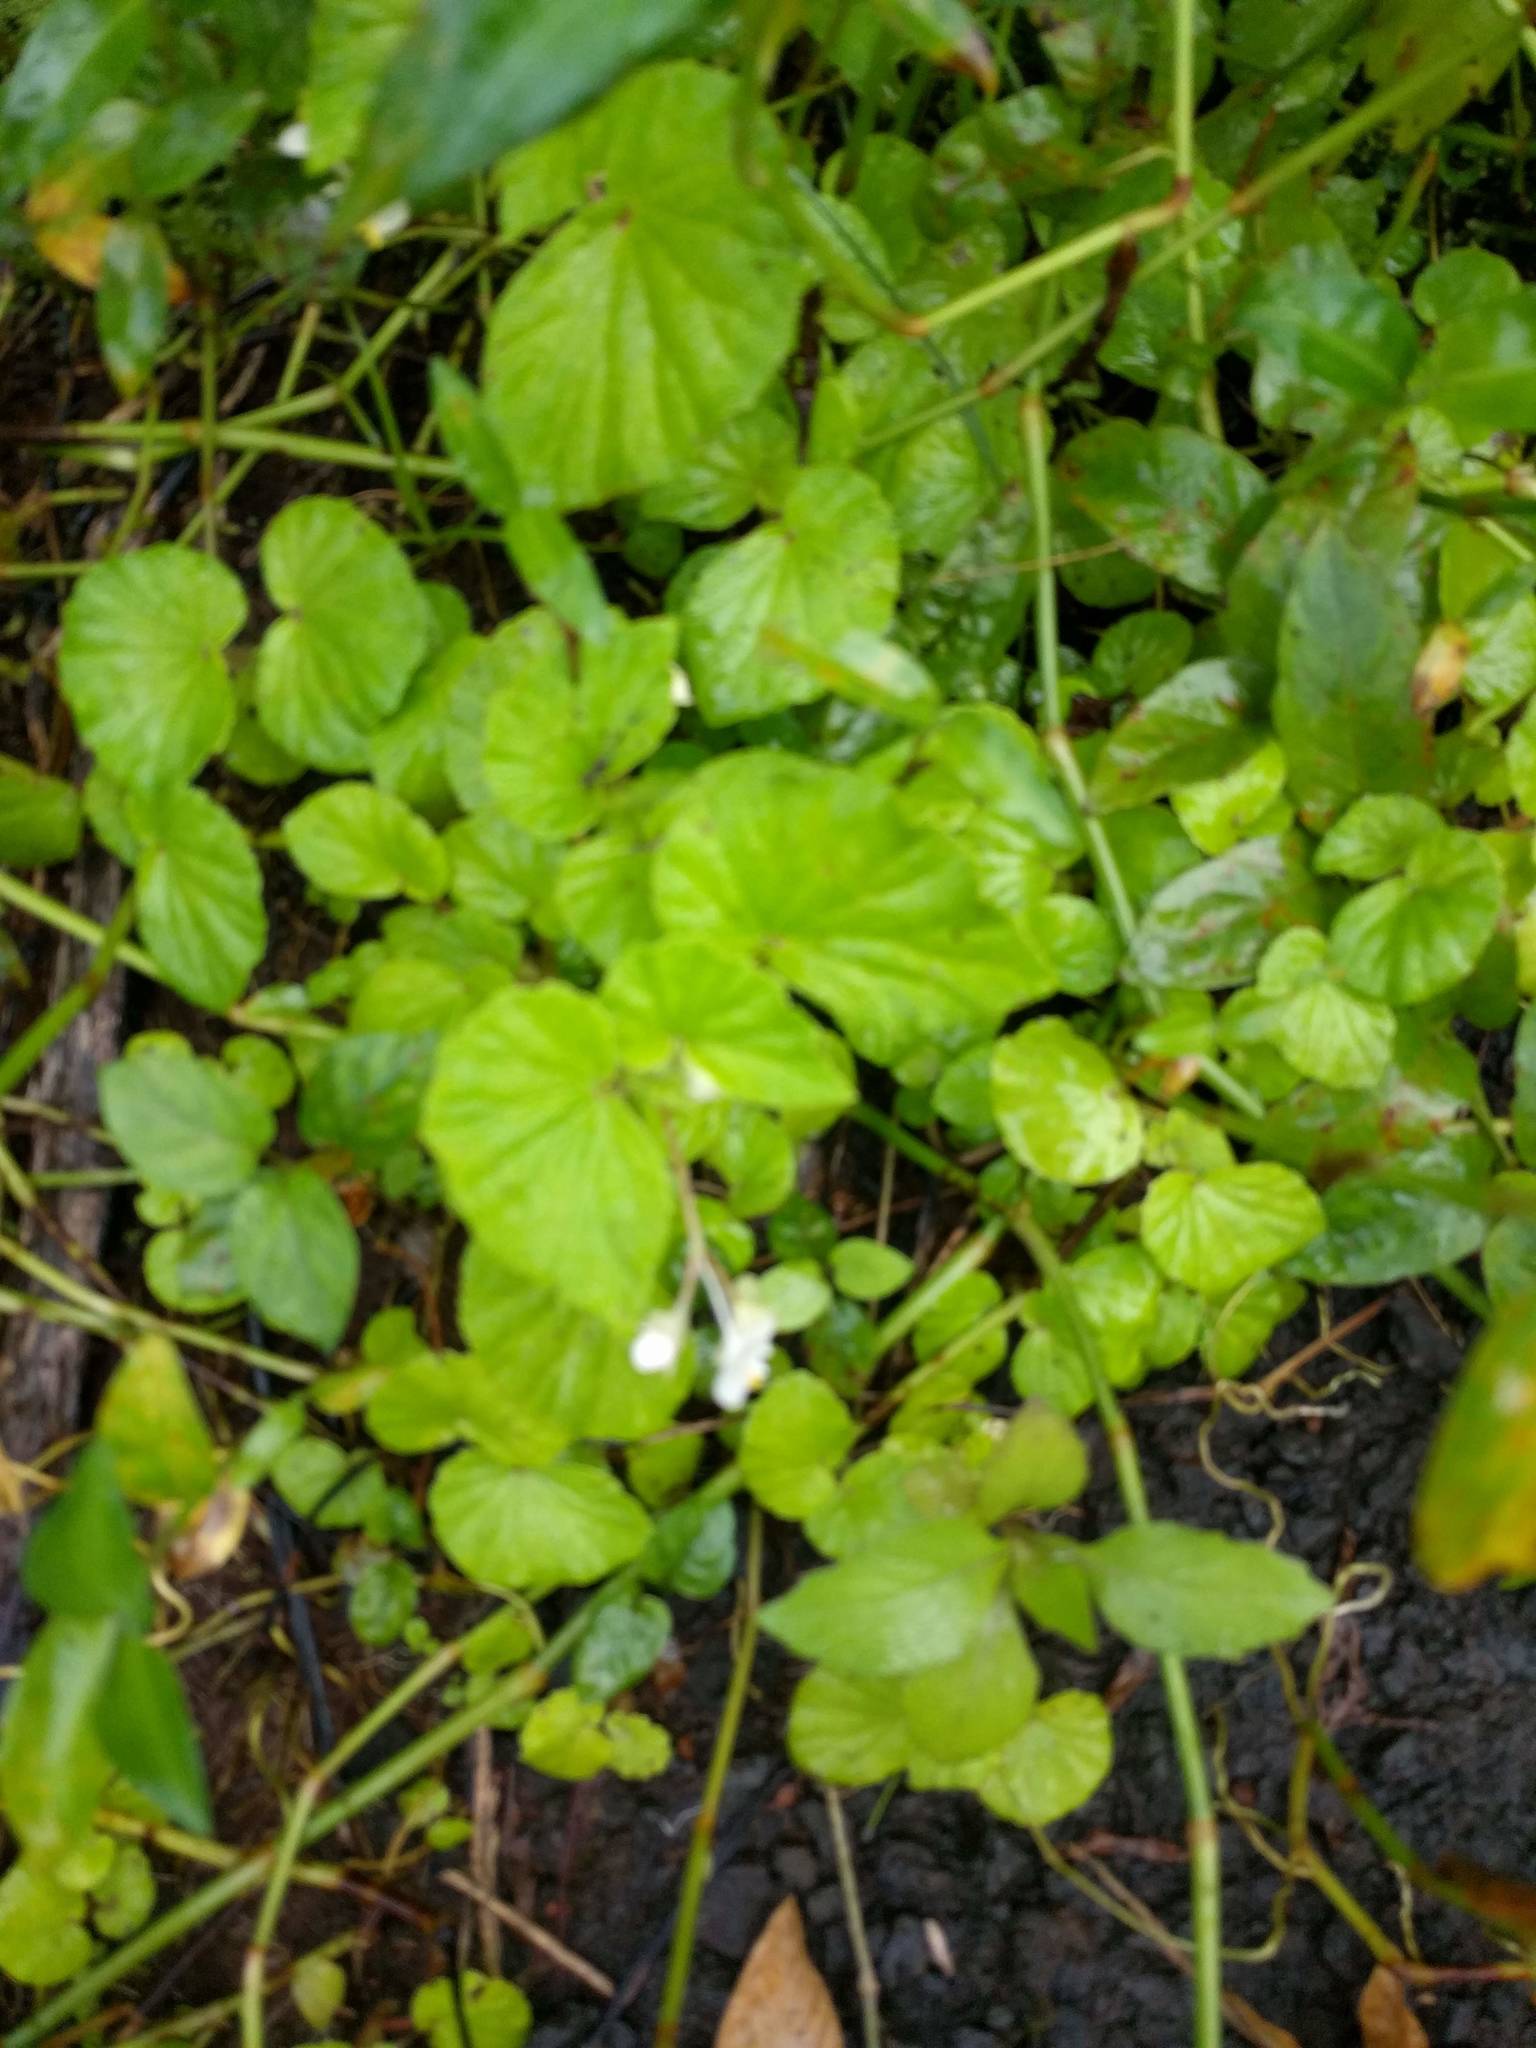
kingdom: Plantae
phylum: Tracheophyta
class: Magnoliopsida
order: Cucurbitales
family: Begoniaceae
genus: Begonia
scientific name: Begonia hirtella
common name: Brazilian begonia
